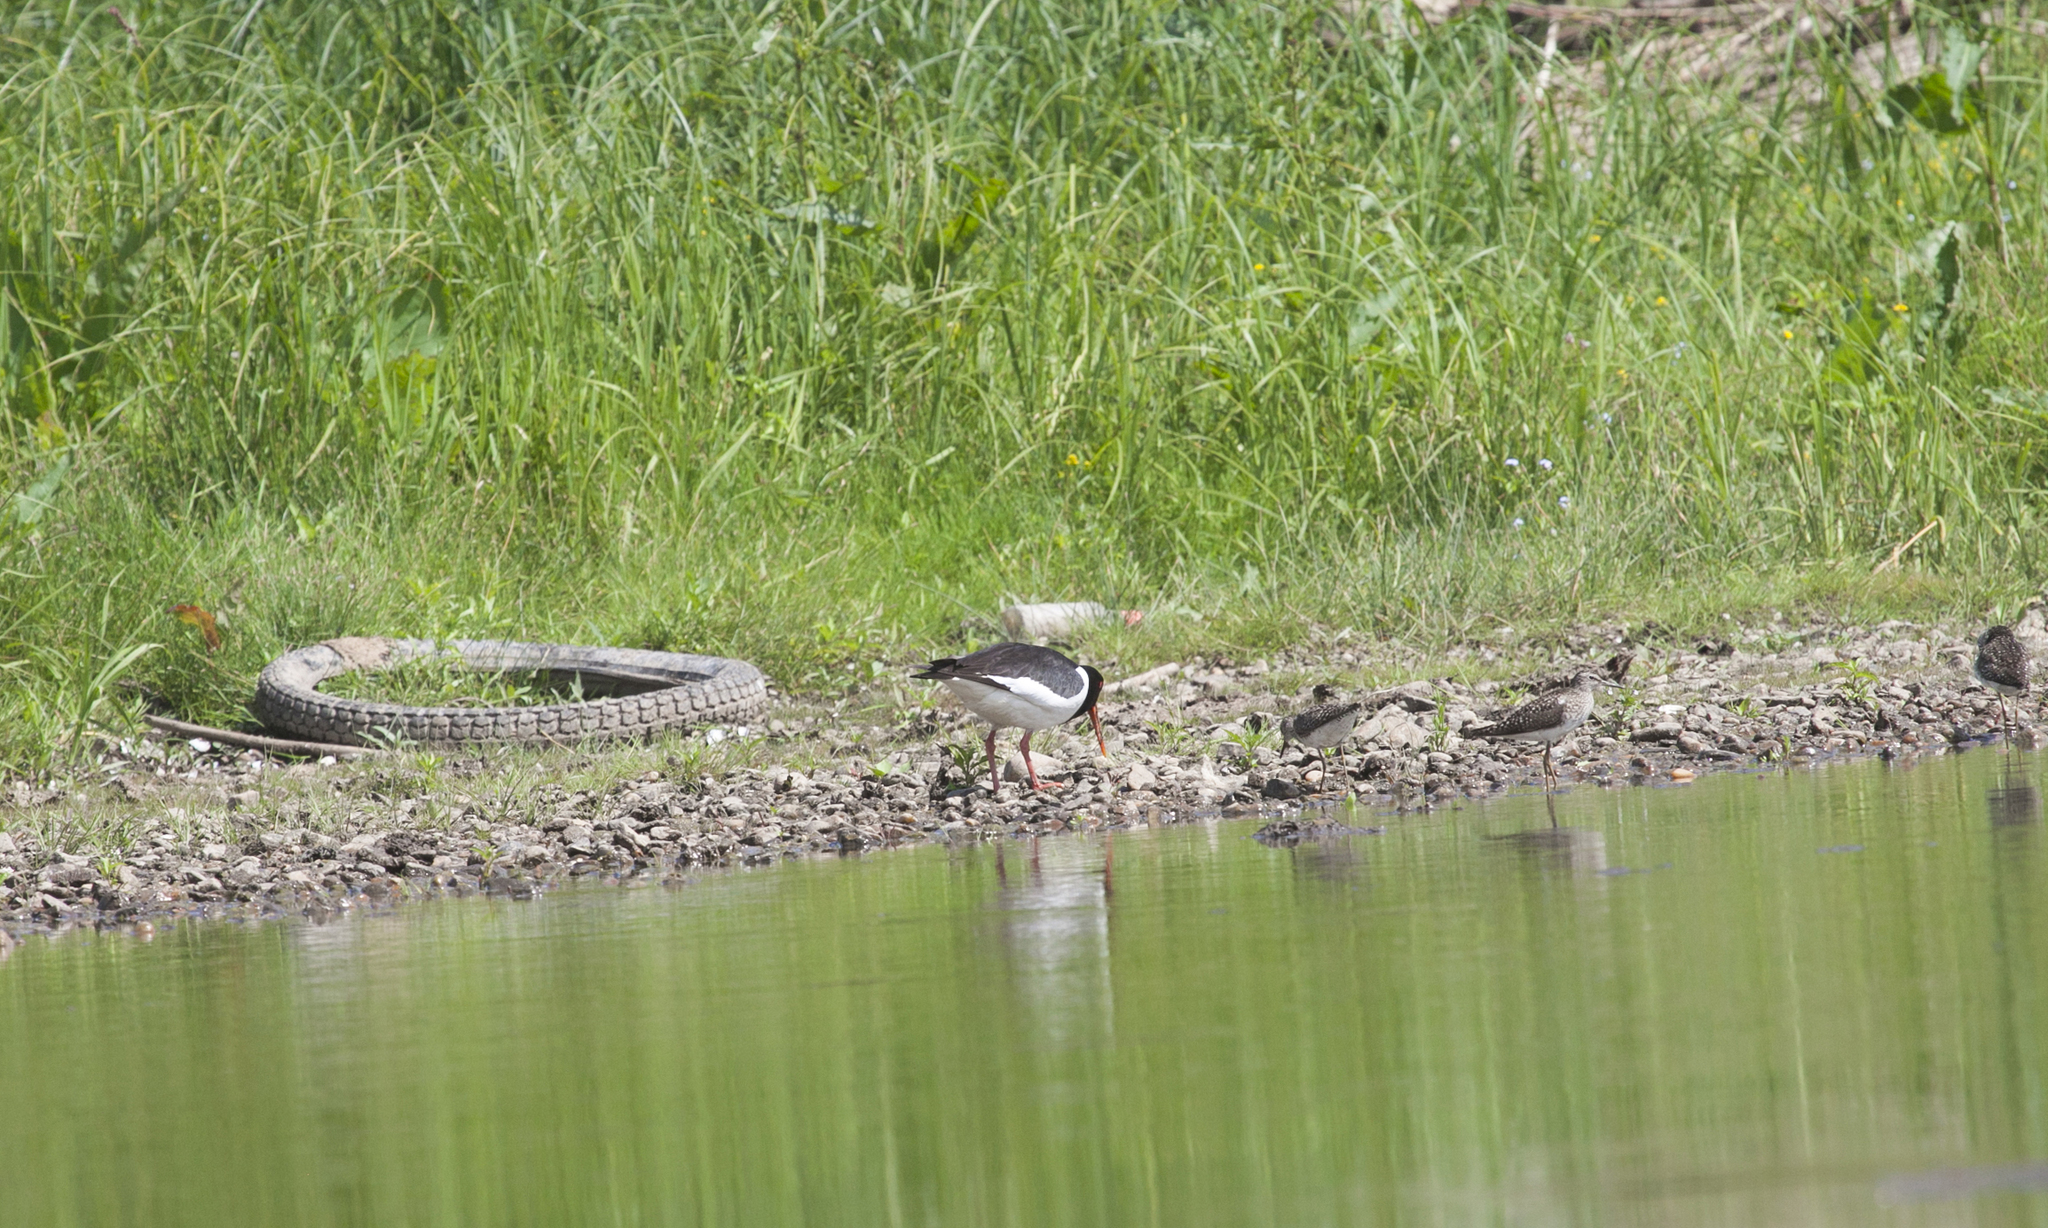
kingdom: Animalia
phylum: Chordata
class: Aves
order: Charadriiformes
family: Haematopodidae
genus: Haematopus
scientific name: Haematopus ostralegus
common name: Eurasian oystercatcher
